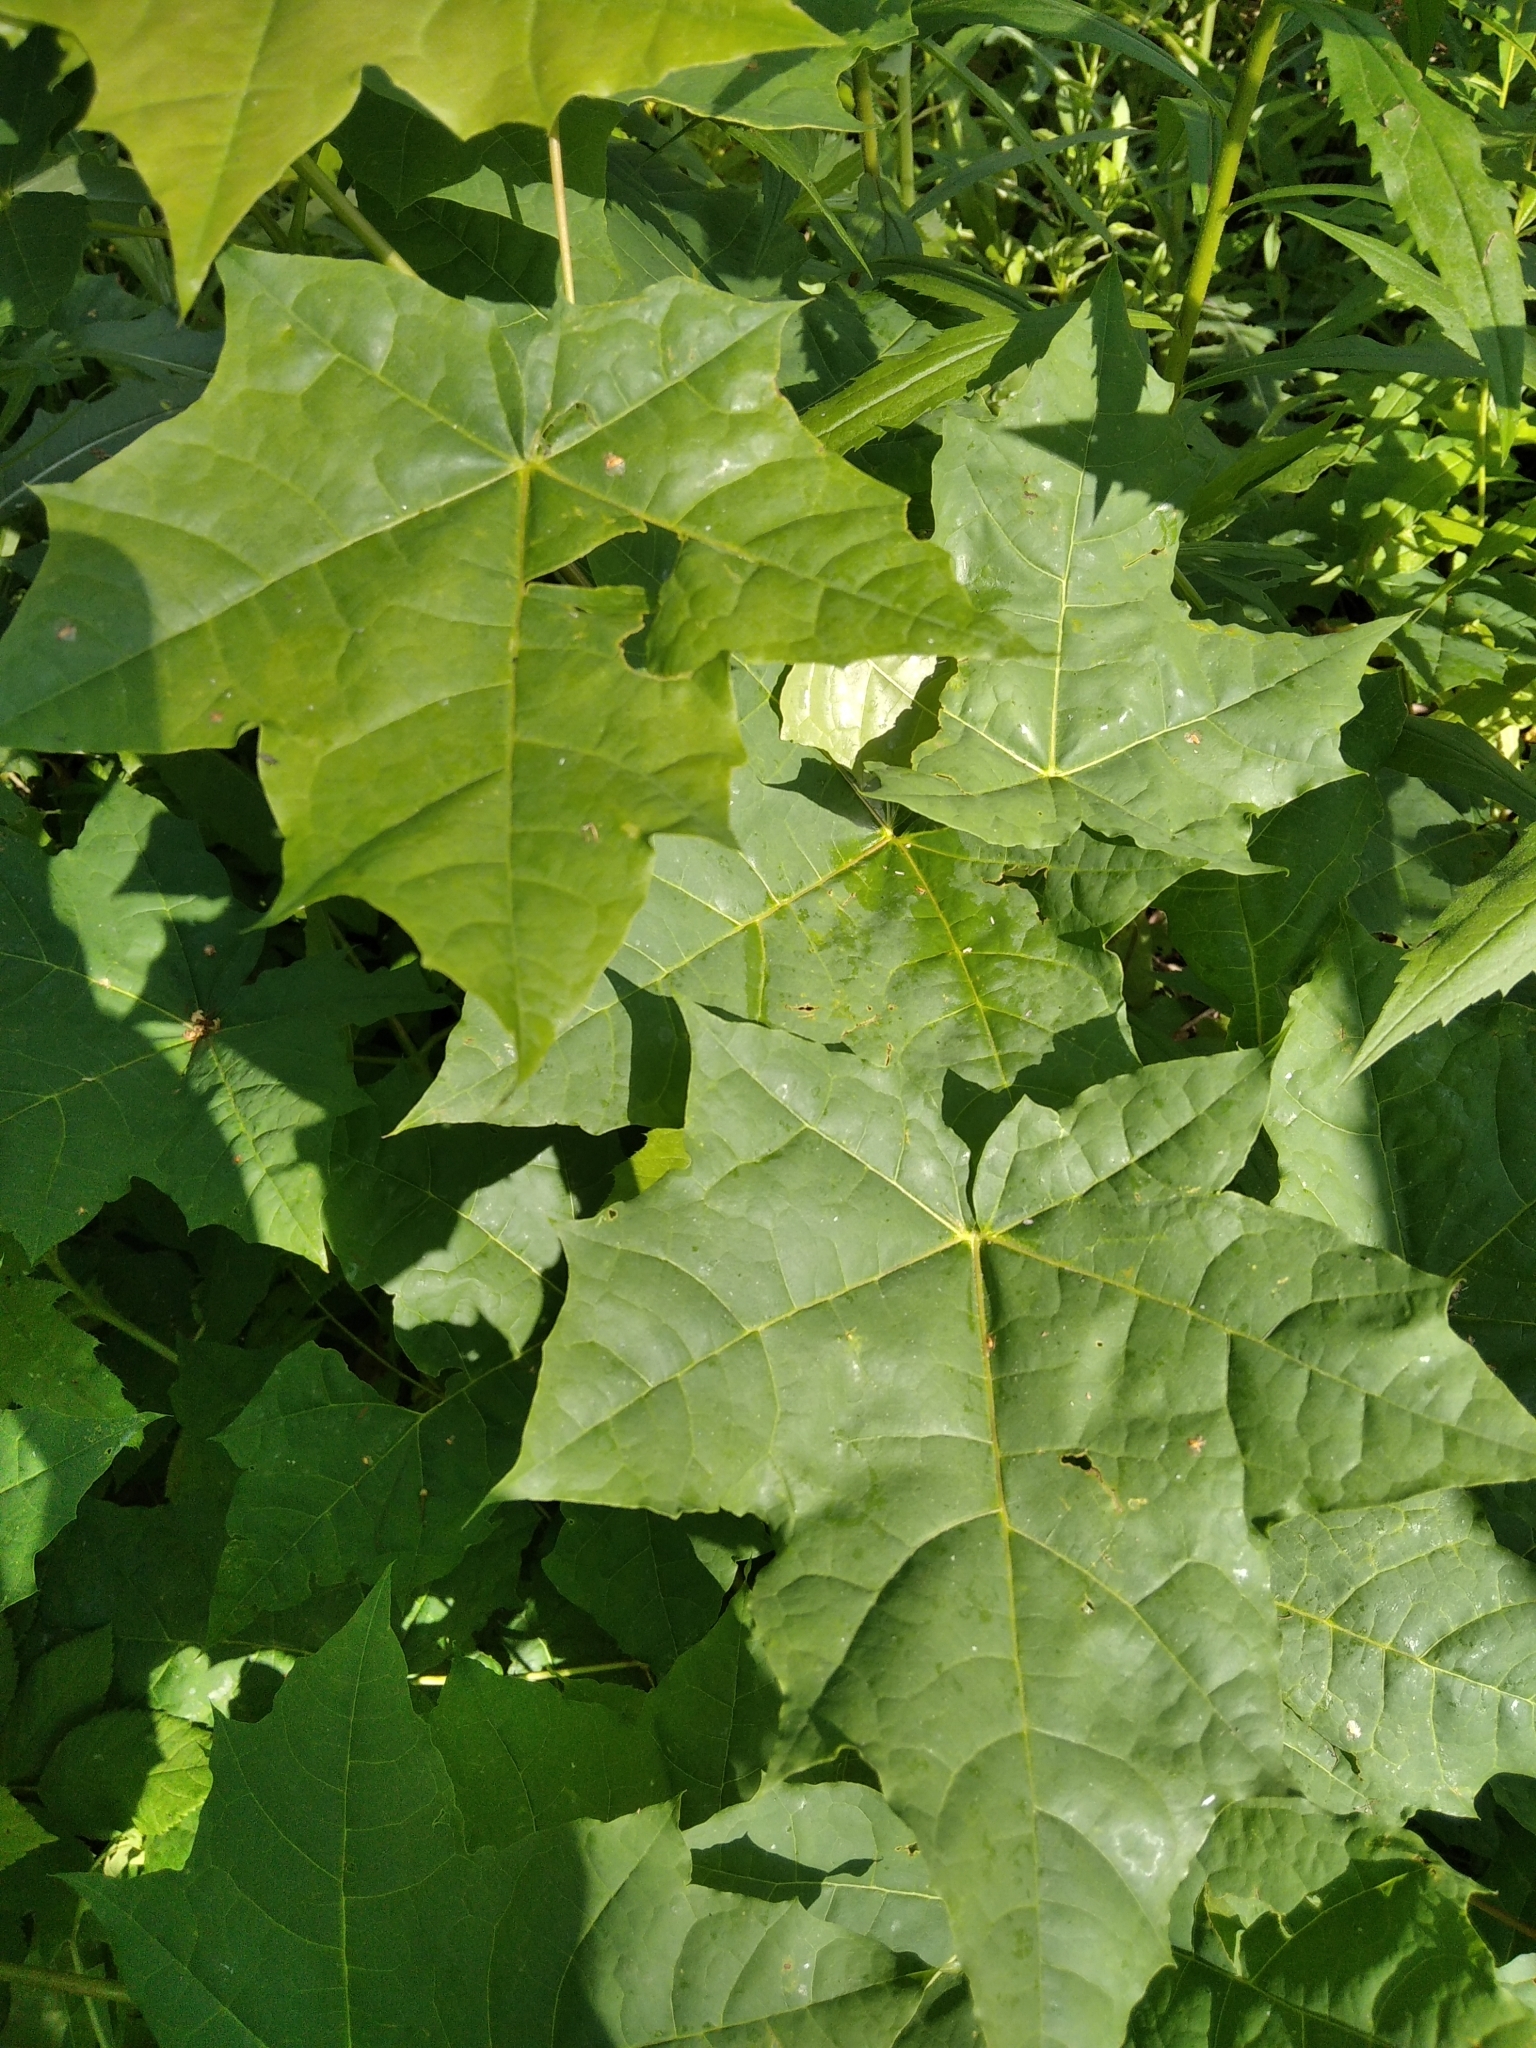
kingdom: Plantae
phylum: Tracheophyta
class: Magnoliopsida
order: Sapindales
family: Sapindaceae
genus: Acer
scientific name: Acer platanoides
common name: Norway maple
